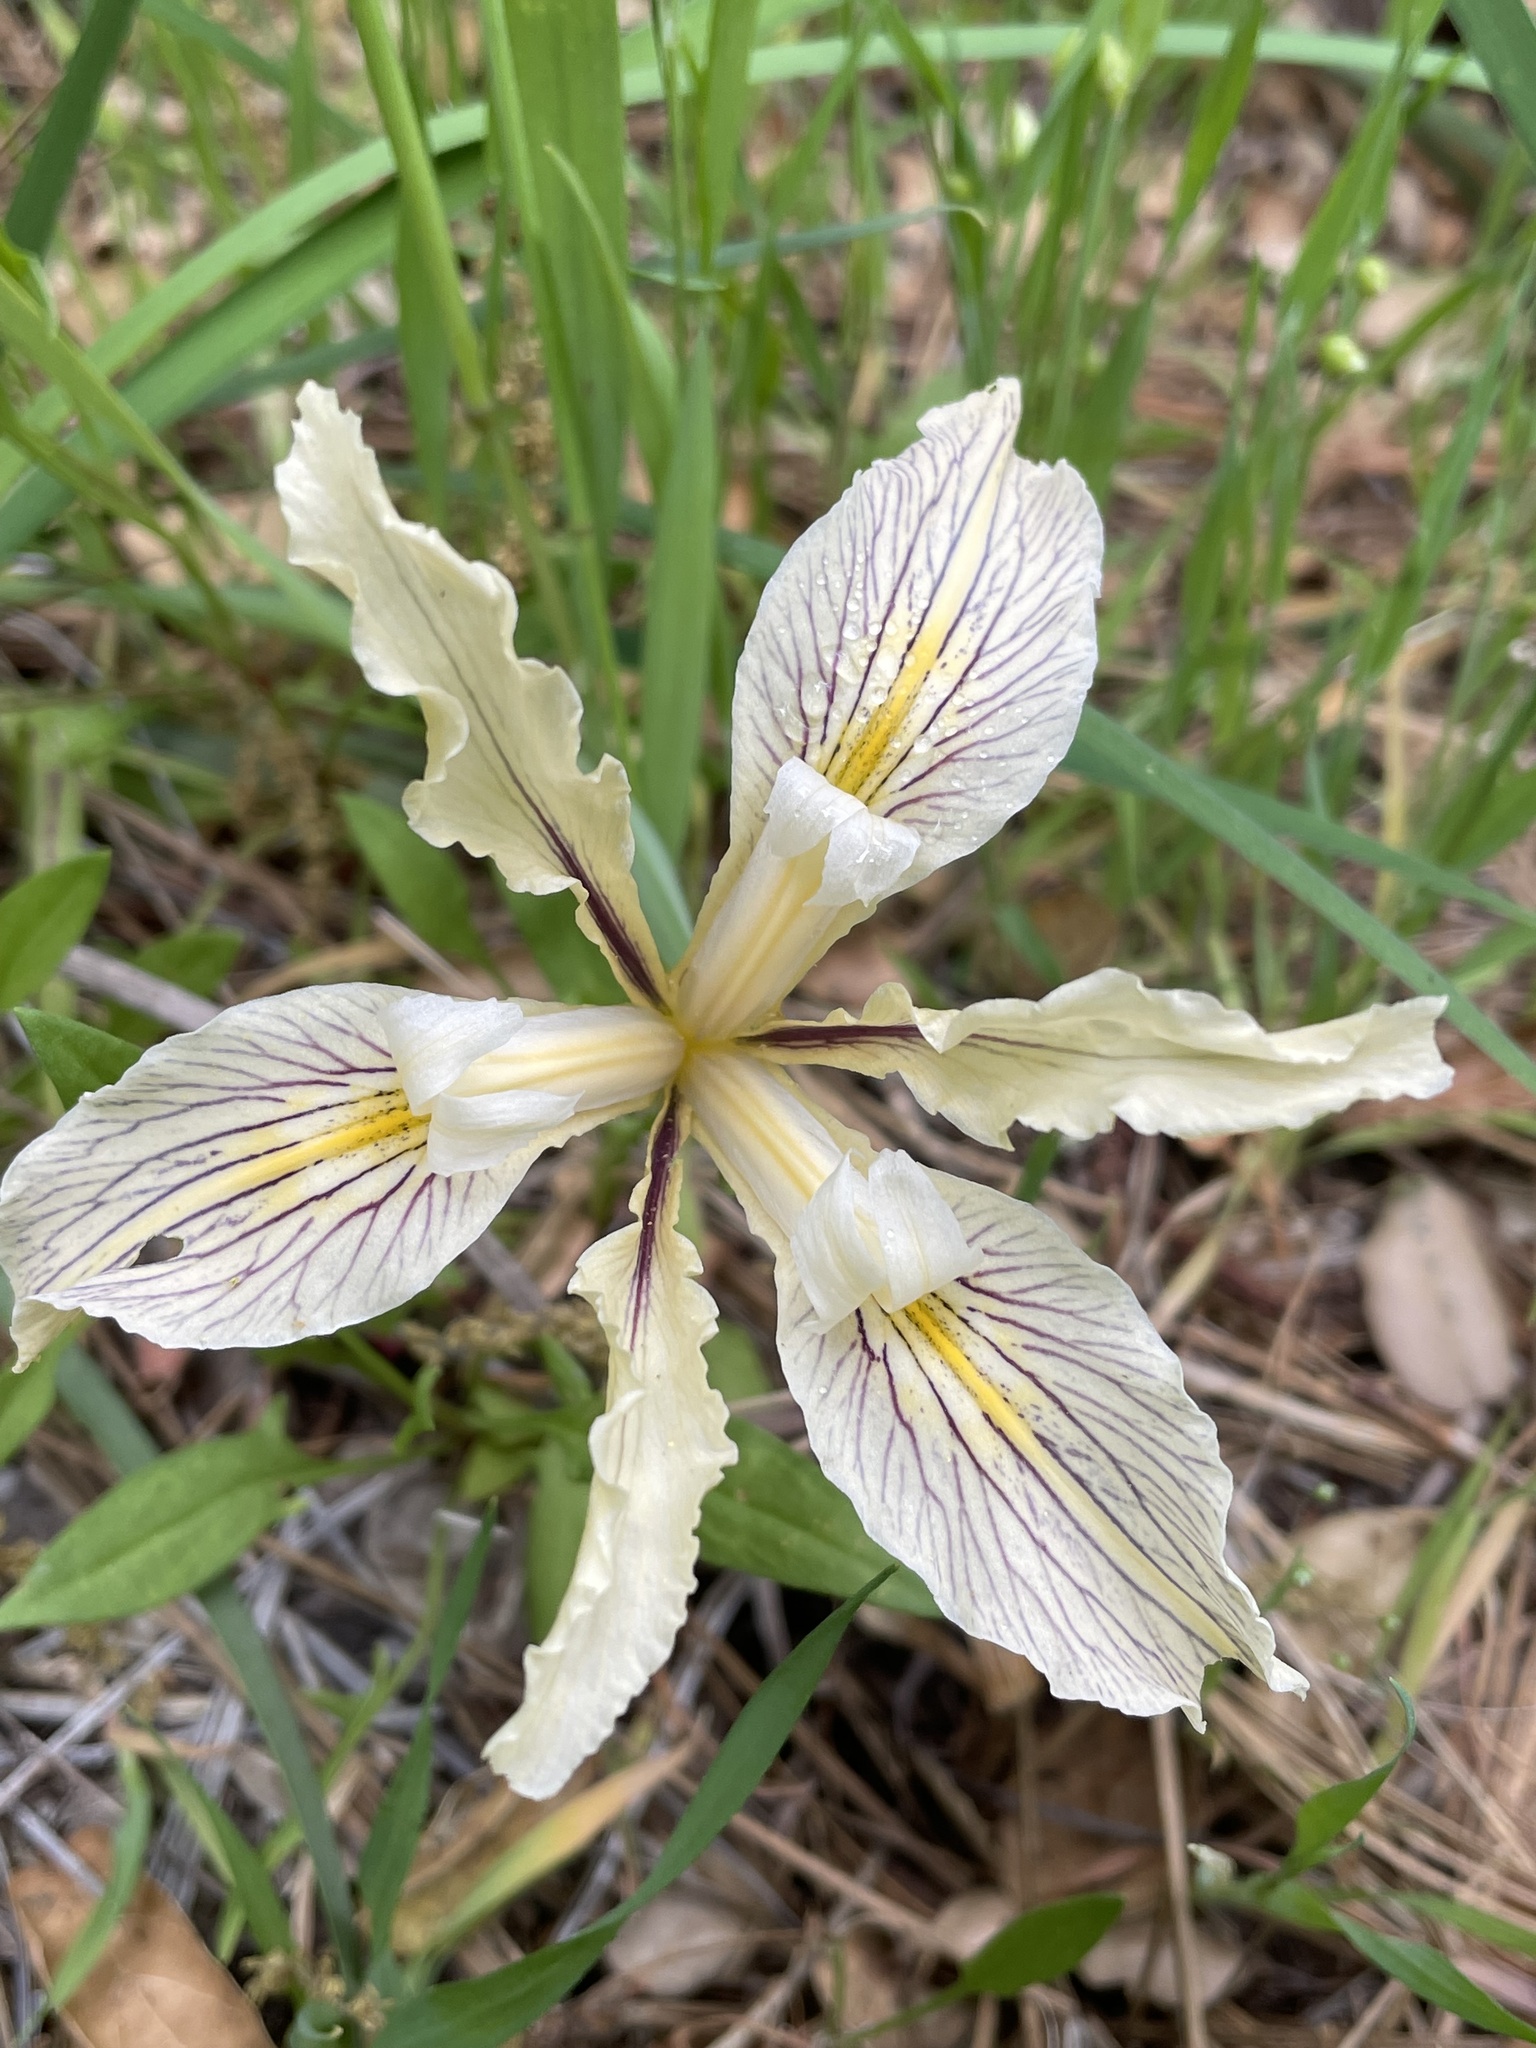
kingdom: Plantae
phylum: Tracheophyta
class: Liliopsida
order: Asparagales
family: Iridaceae
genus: Iris
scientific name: Iris fernaldii
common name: Fernald's iris
